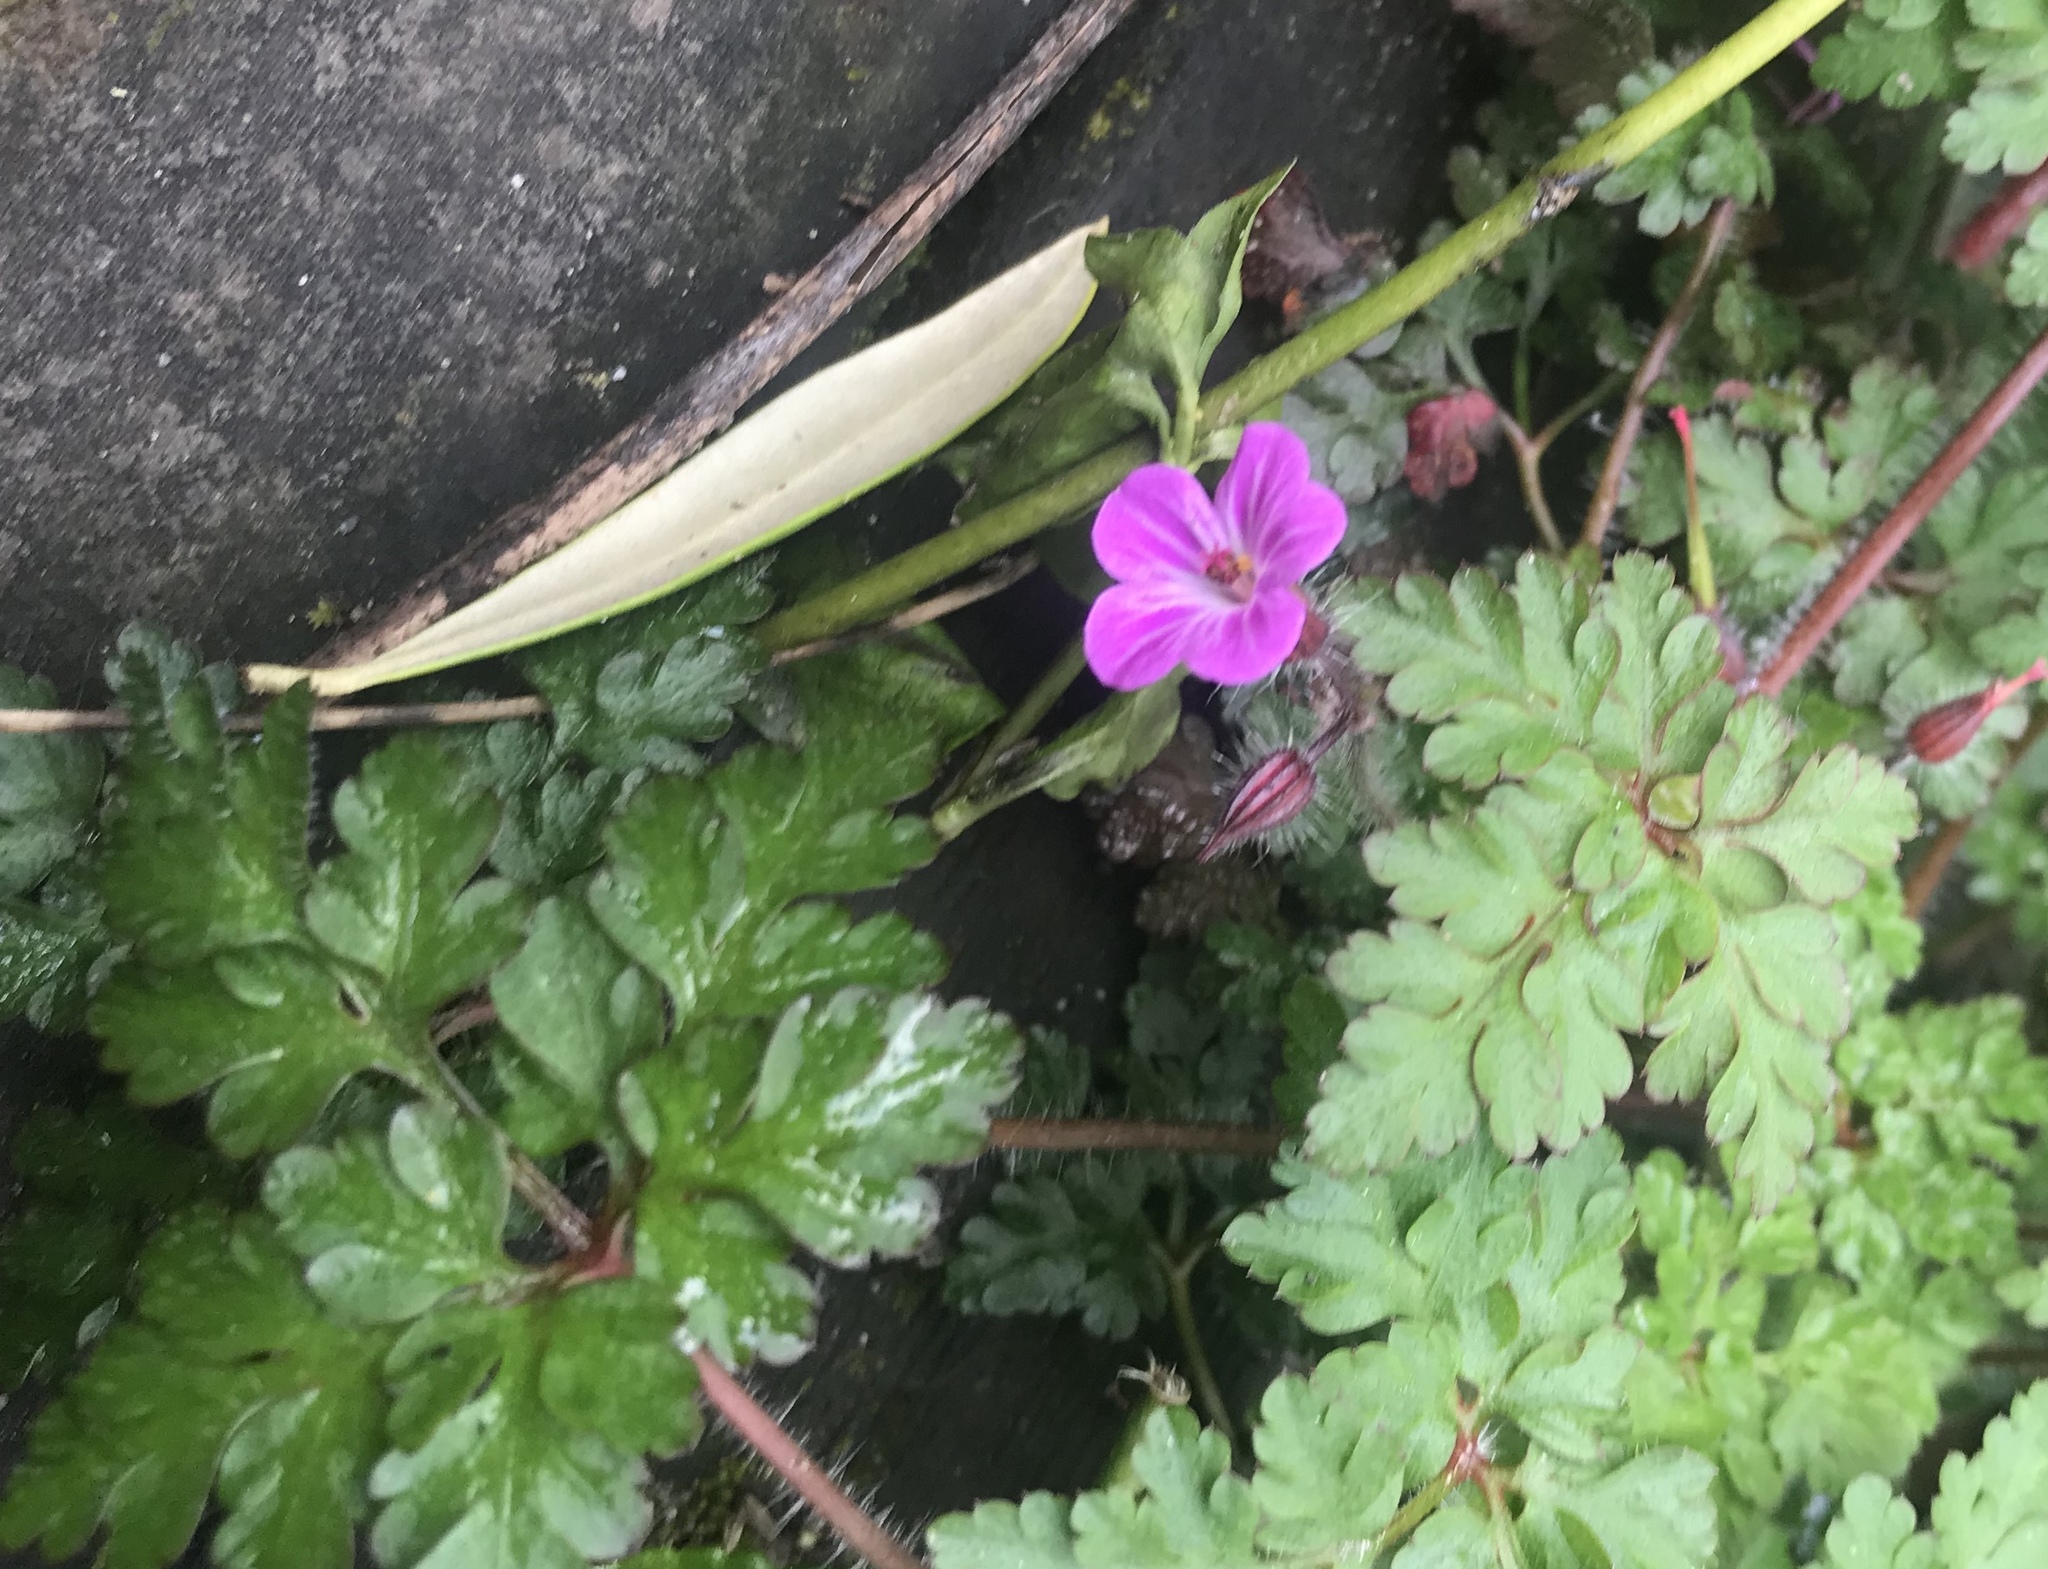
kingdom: Plantae
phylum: Tracheophyta
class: Magnoliopsida
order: Geraniales
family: Geraniaceae
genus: Geranium
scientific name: Geranium robertianum
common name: Herb-robert
